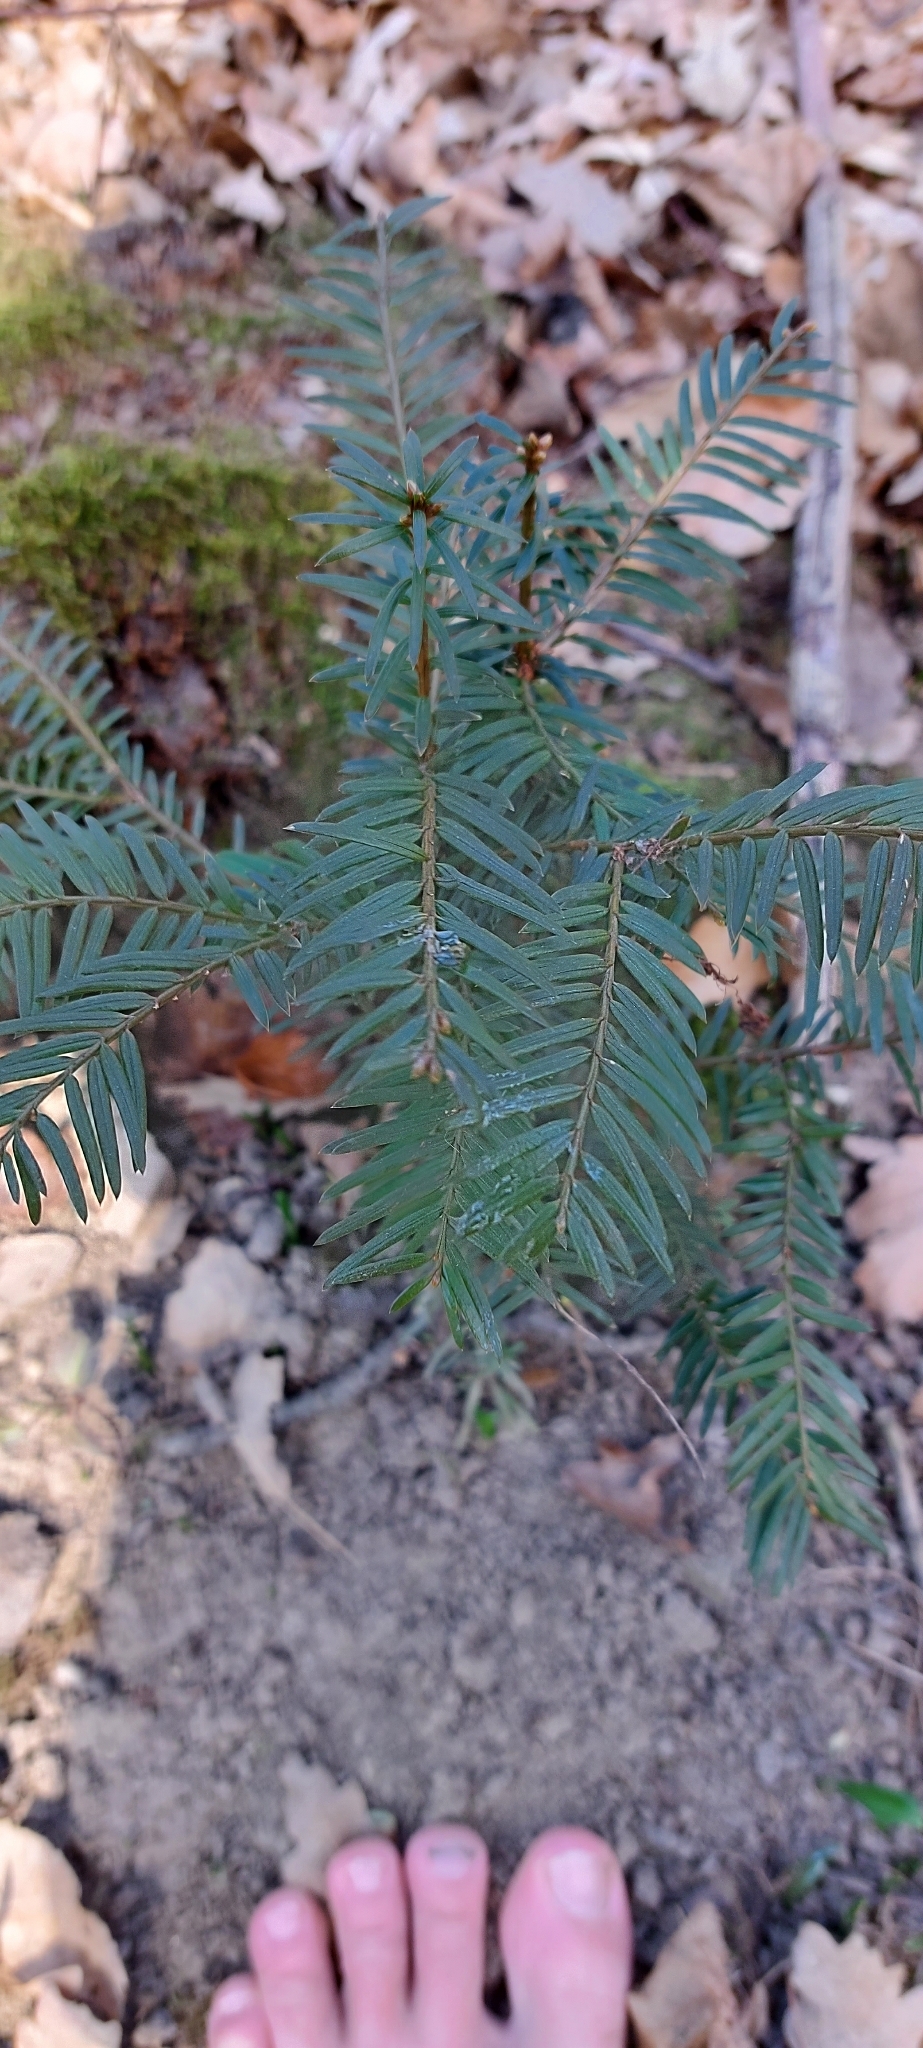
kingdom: Plantae
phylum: Tracheophyta
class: Pinopsida
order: Pinales
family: Taxaceae
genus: Taxus
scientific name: Taxus baccata
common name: Yew
